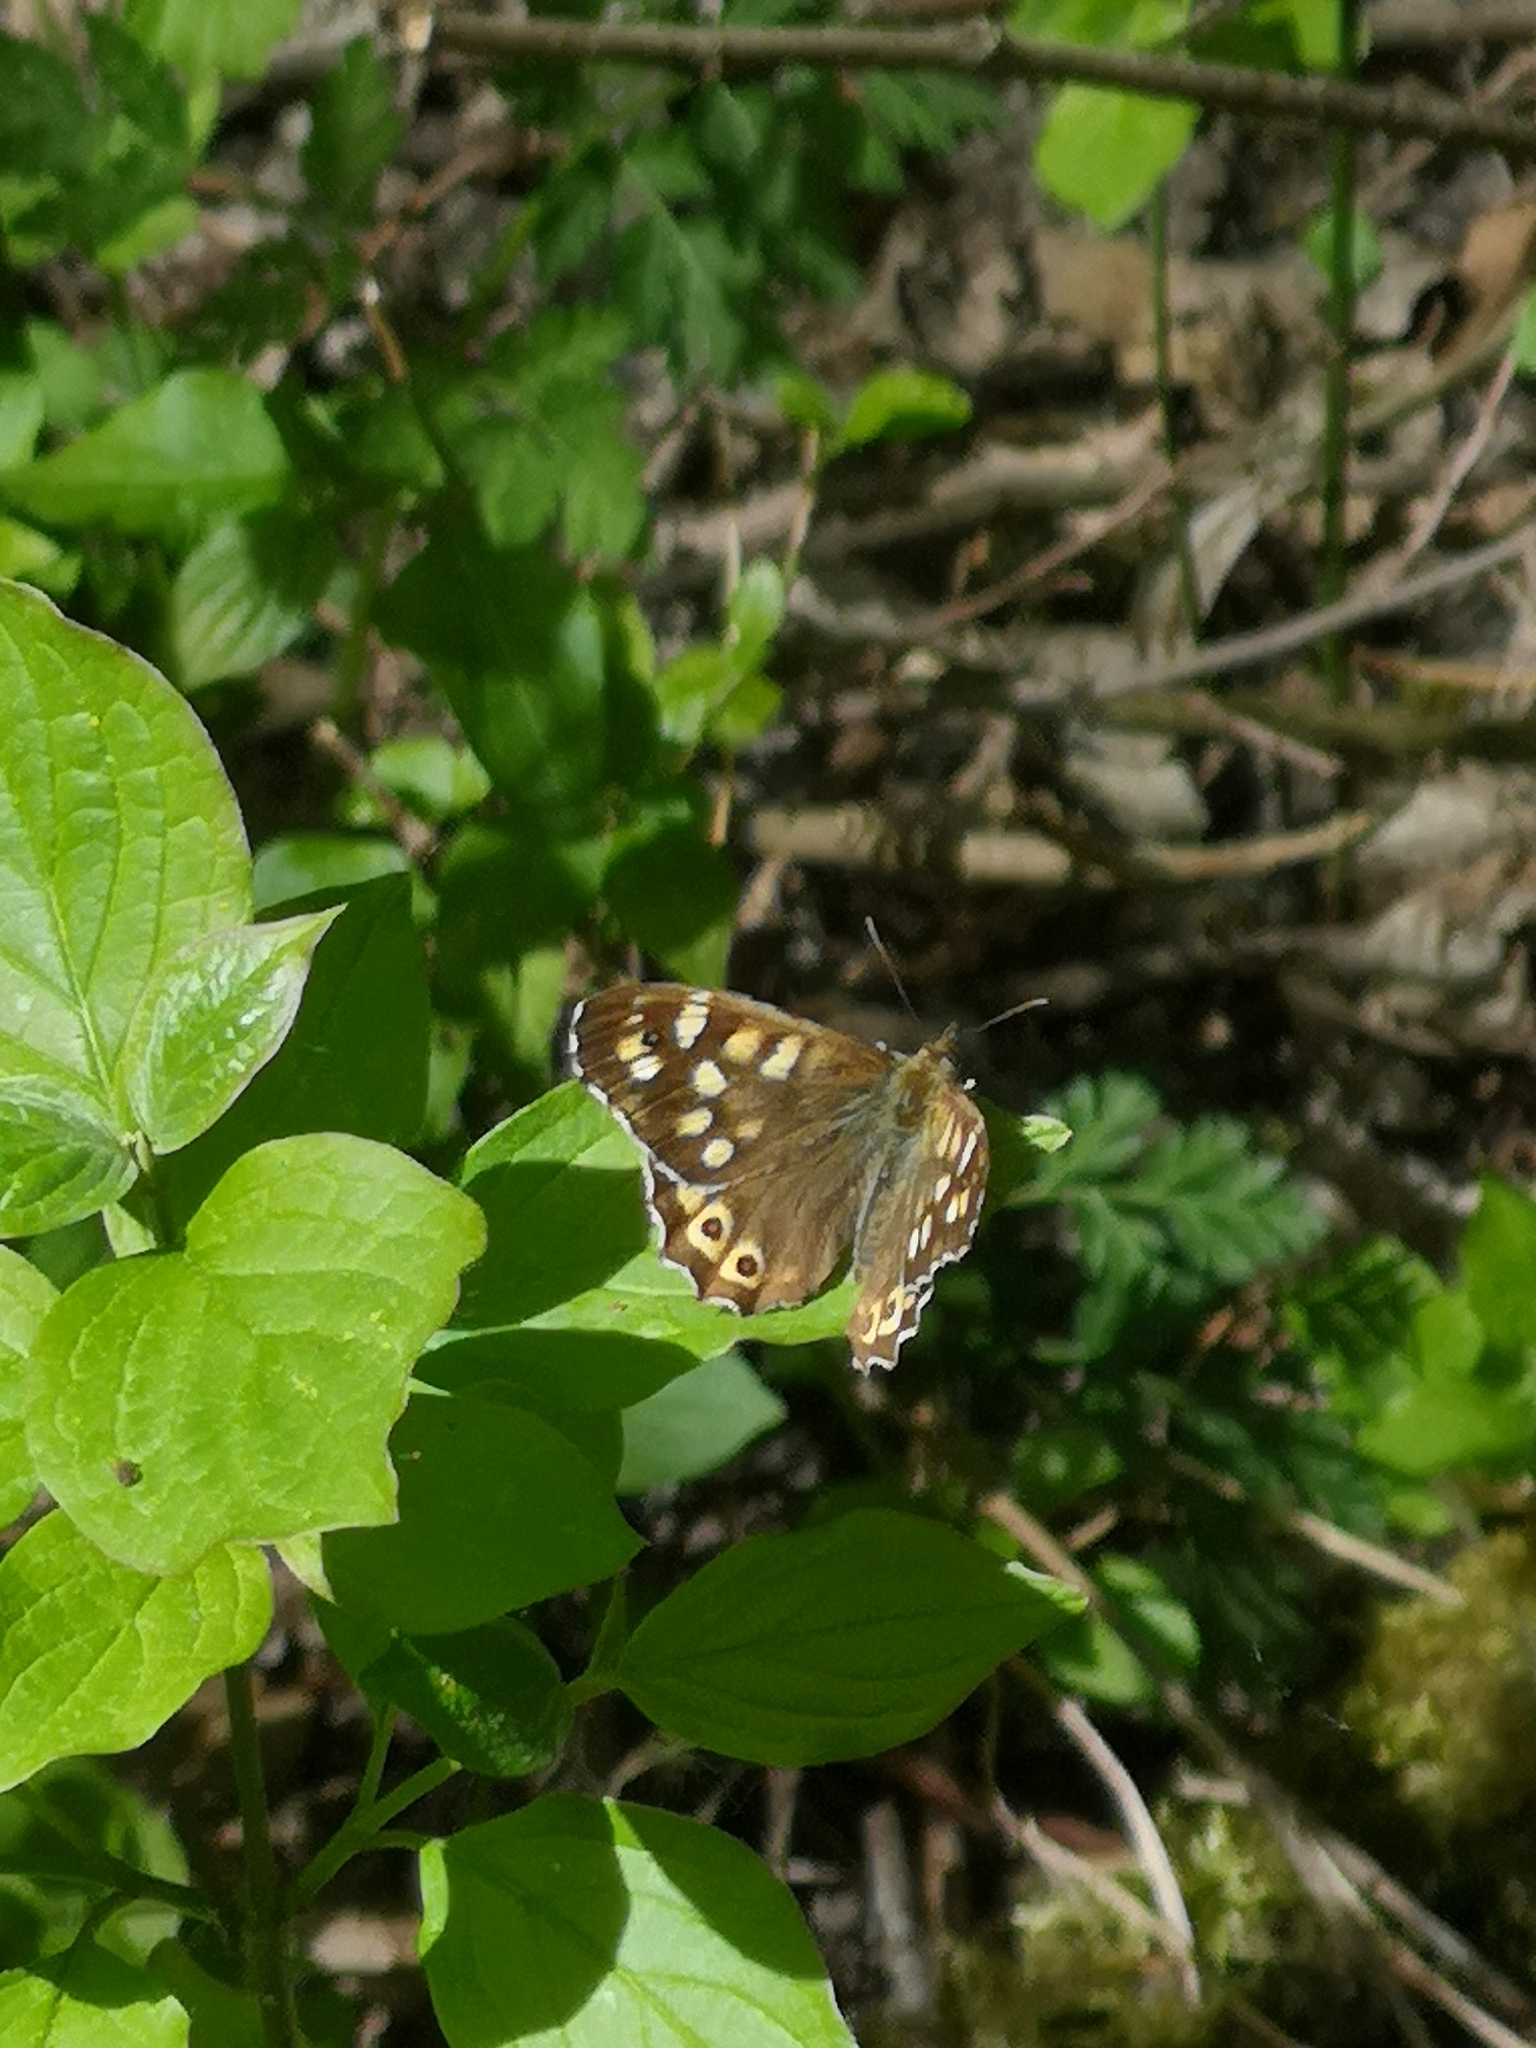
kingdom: Animalia
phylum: Arthropoda
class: Insecta
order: Lepidoptera
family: Nymphalidae
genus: Pararge
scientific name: Pararge aegeria
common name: Speckled wood
